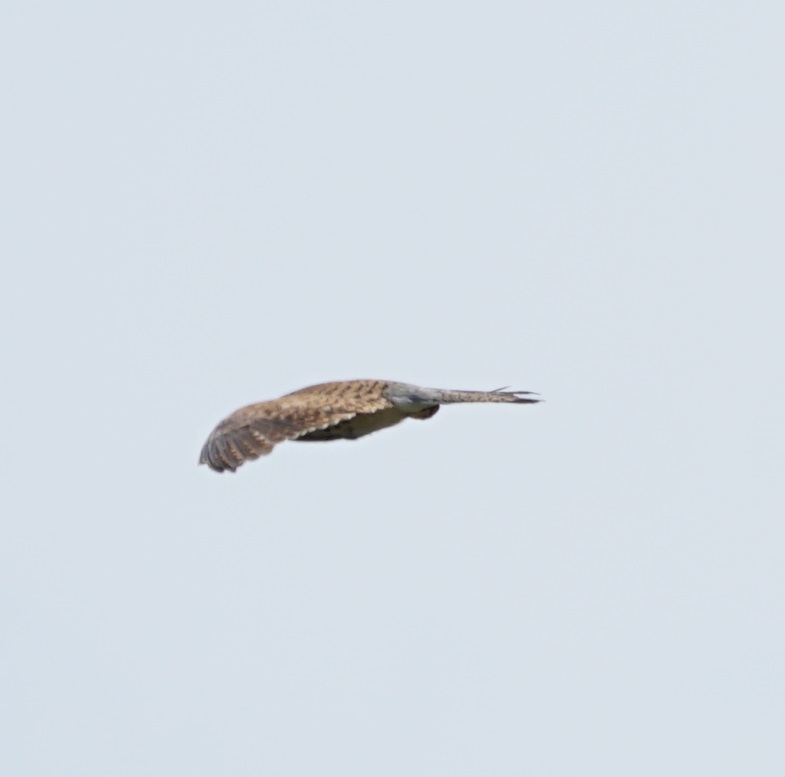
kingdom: Animalia
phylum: Chordata
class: Aves
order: Falconiformes
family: Falconidae
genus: Falco
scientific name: Falco tinnunculus
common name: Common kestrel
